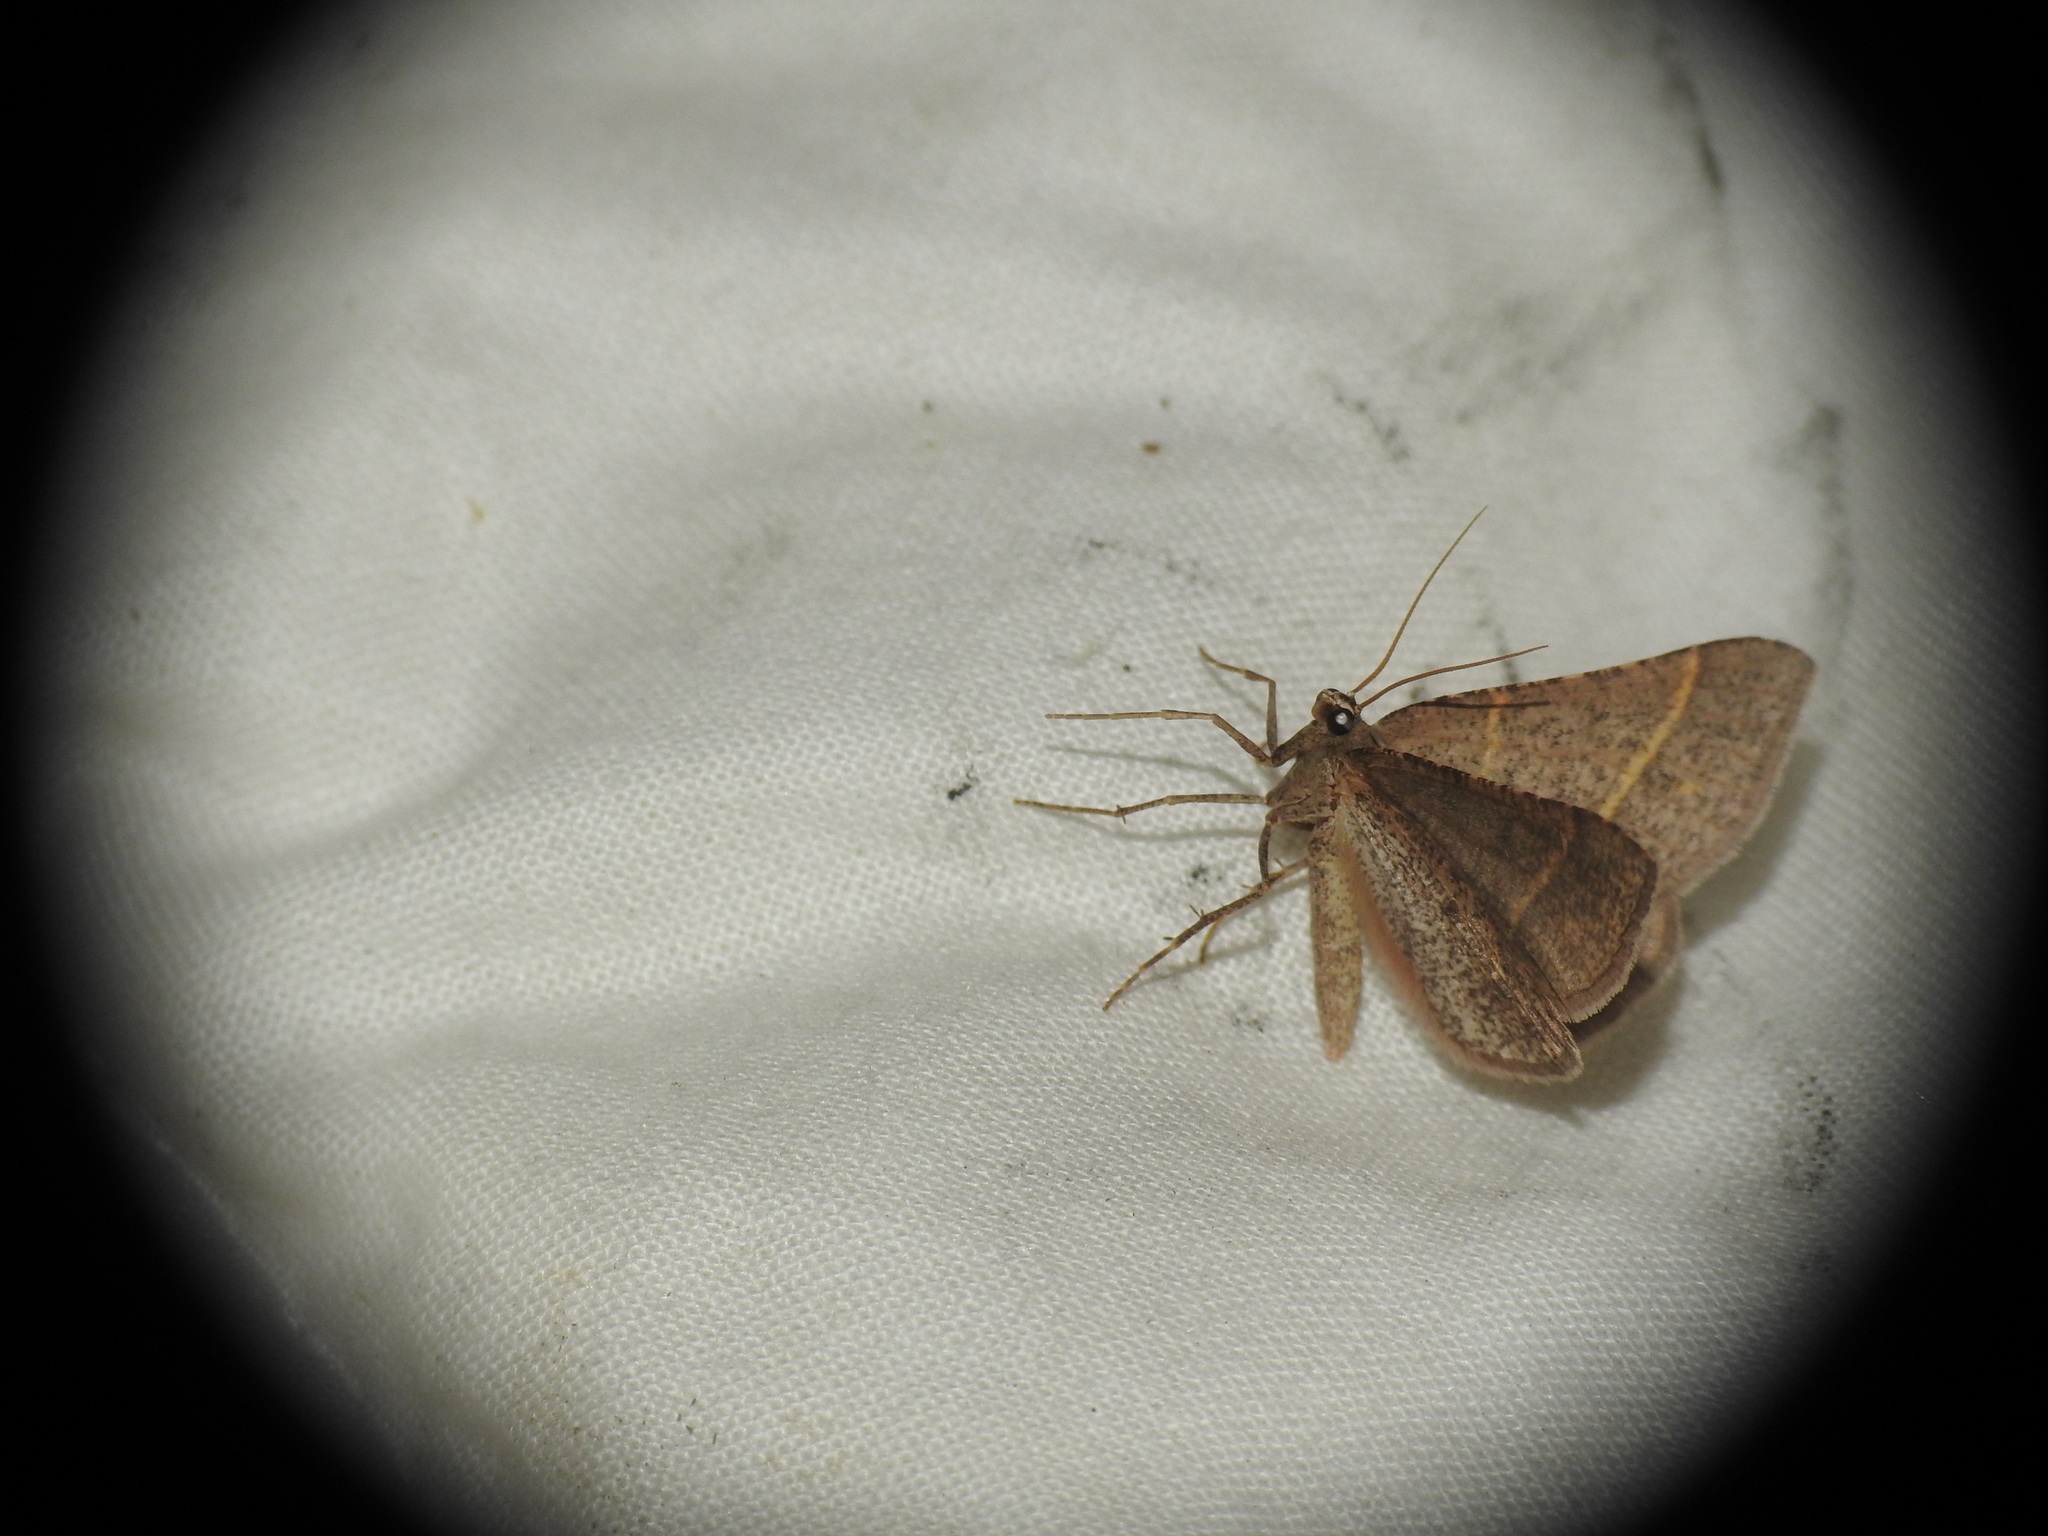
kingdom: Animalia
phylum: Arthropoda
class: Insecta
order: Lepidoptera
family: Pterophoridae
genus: Pterophorus
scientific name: Pterophorus Petrophora narbonea
